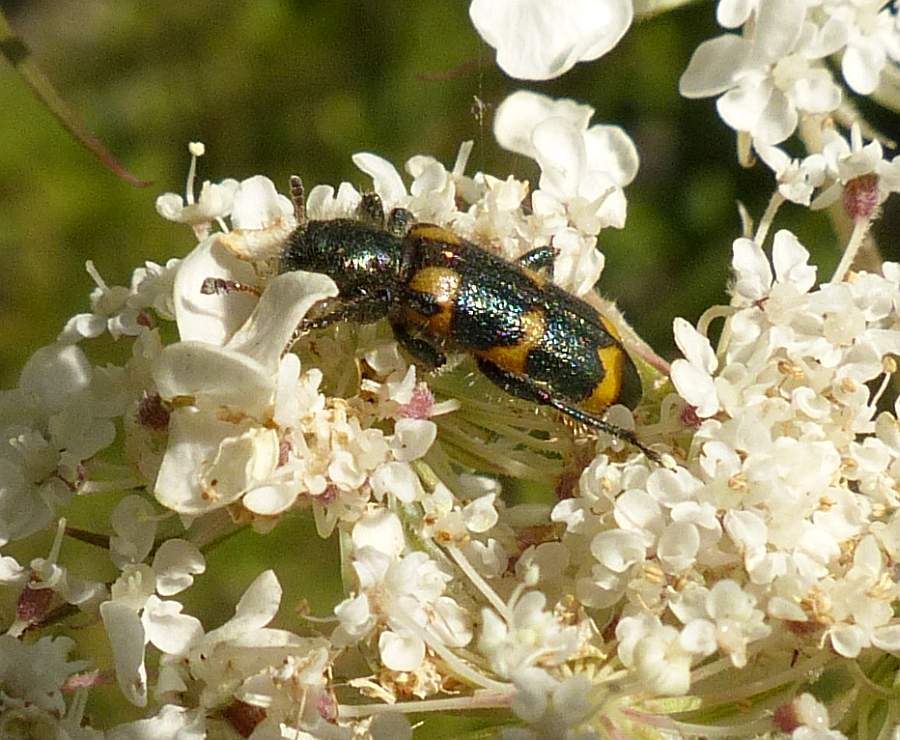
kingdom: Animalia
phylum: Arthropoda
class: Insecta
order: Coleoptera
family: Cleridae
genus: Trichodes
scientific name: Trichodes nutalli
